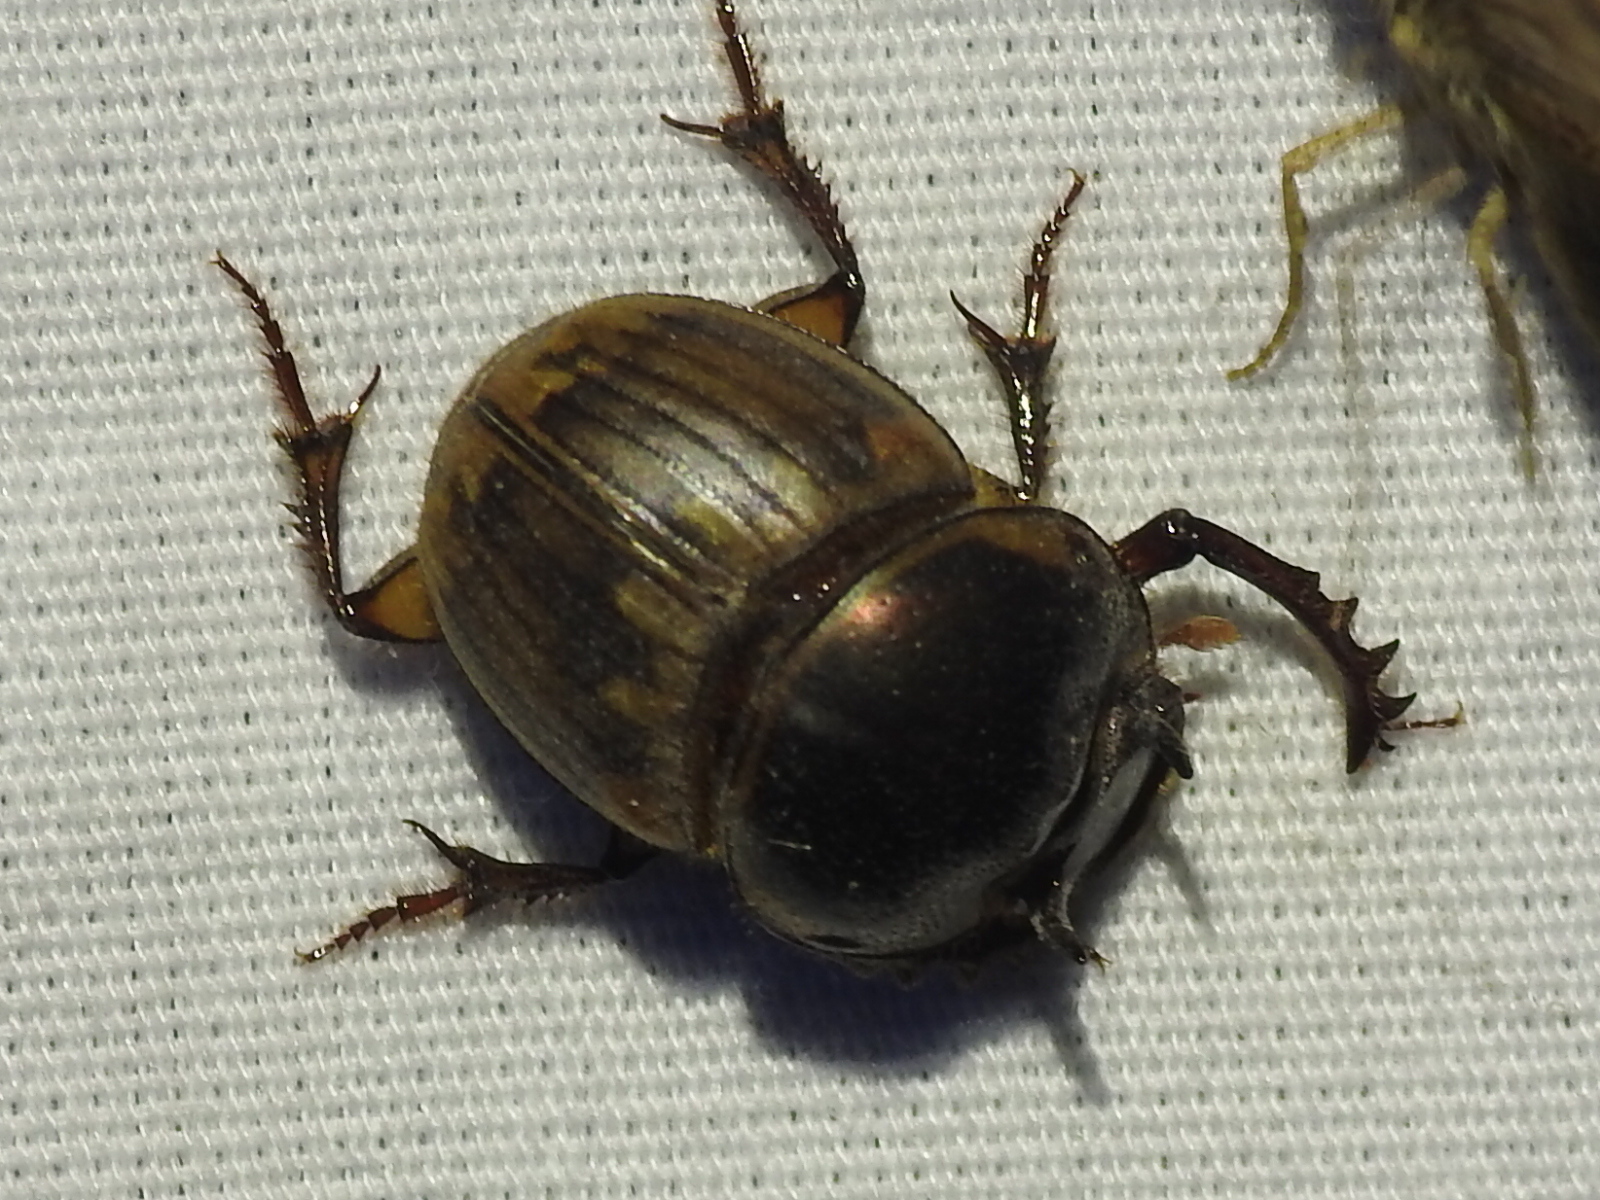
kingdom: Animalia
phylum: Arthropoda
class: Insecta
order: Coleoptera
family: Scarabaeidae
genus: Digitonthophagus
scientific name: Digitonthophagus gazella
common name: Brown dung beetle
